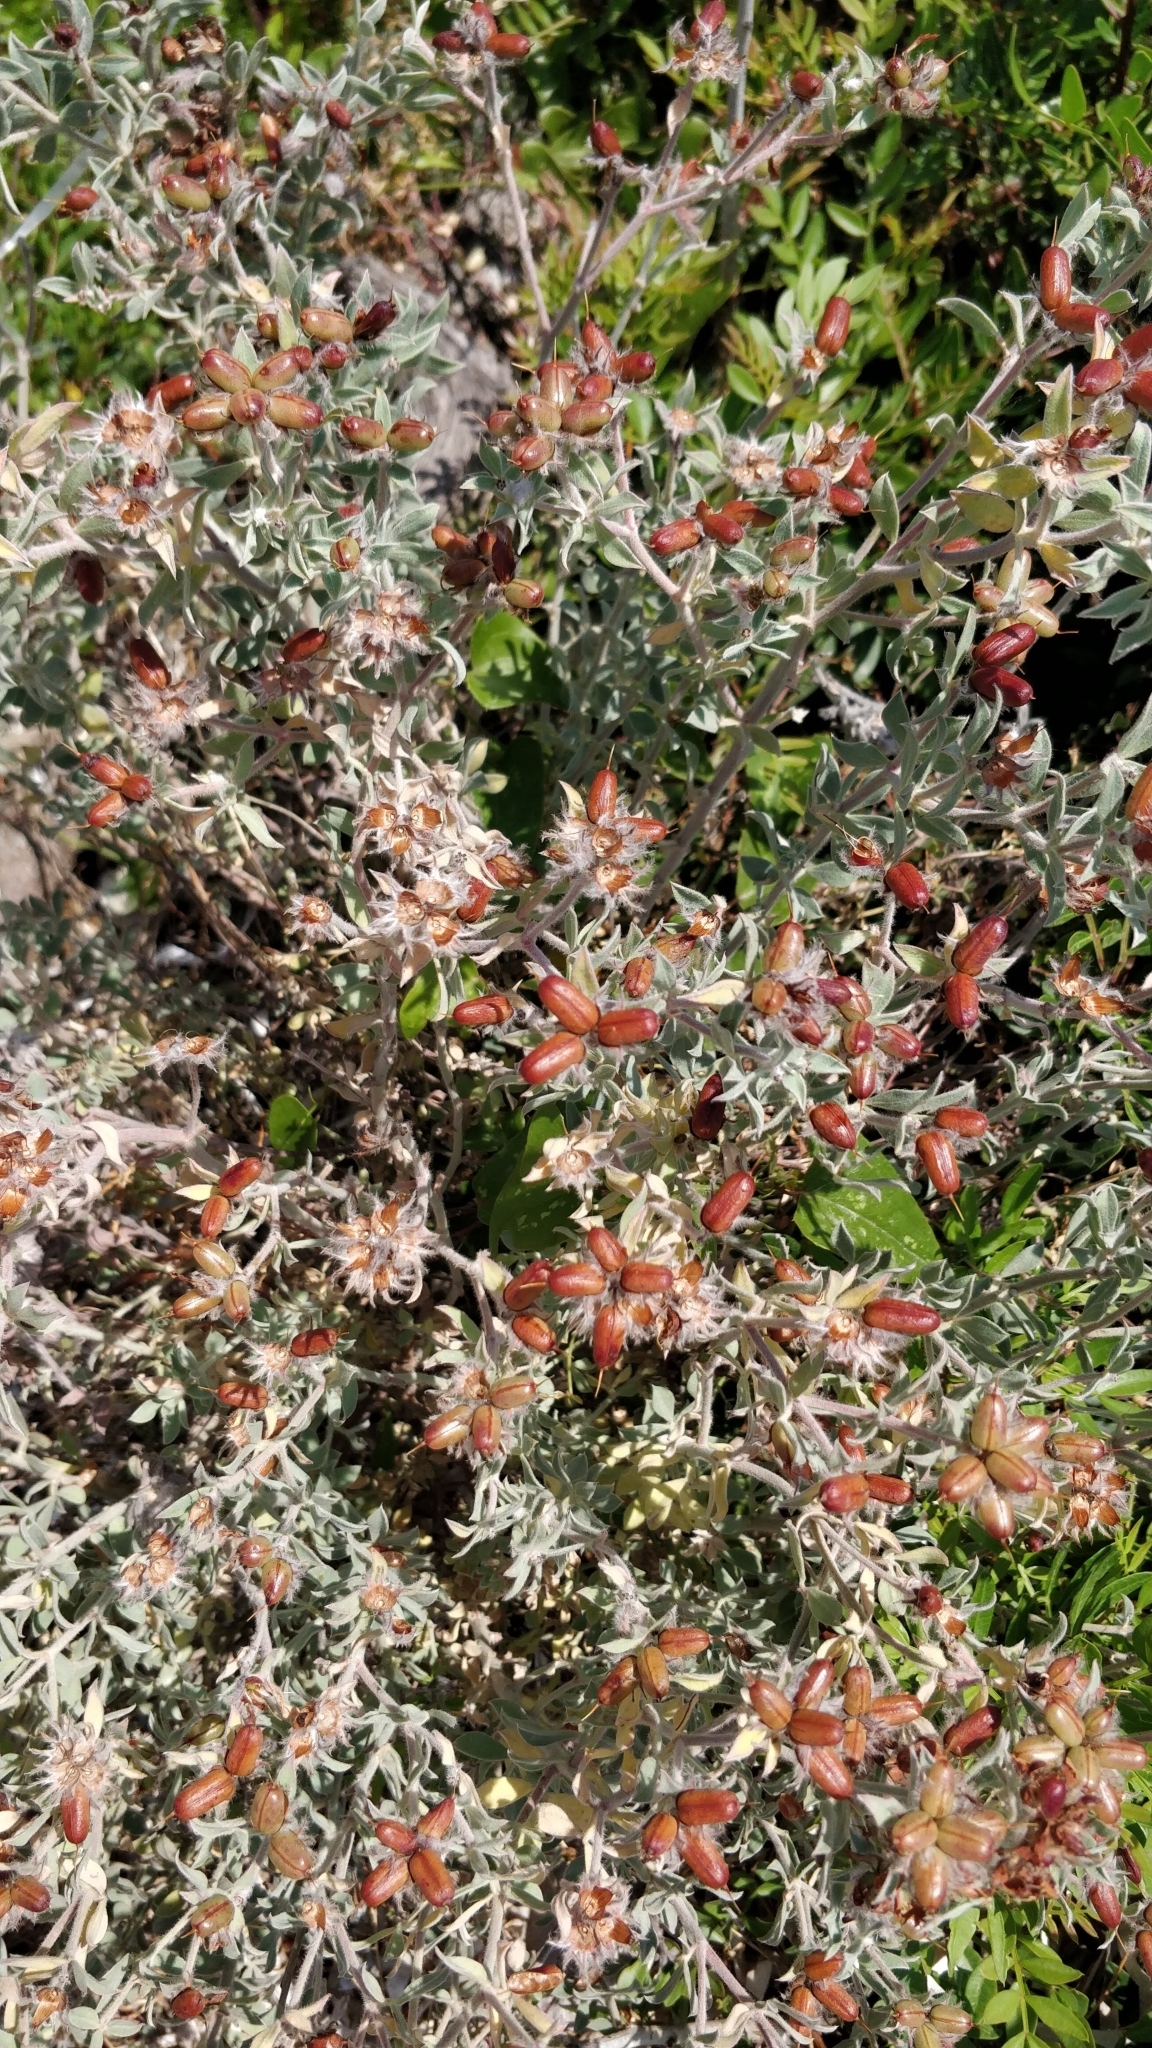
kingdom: Plantae
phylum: Tracheophyta
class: Magnoliopsida
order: Fabales
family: Fabaceae
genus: Lotus
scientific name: Lotus hirsutus
